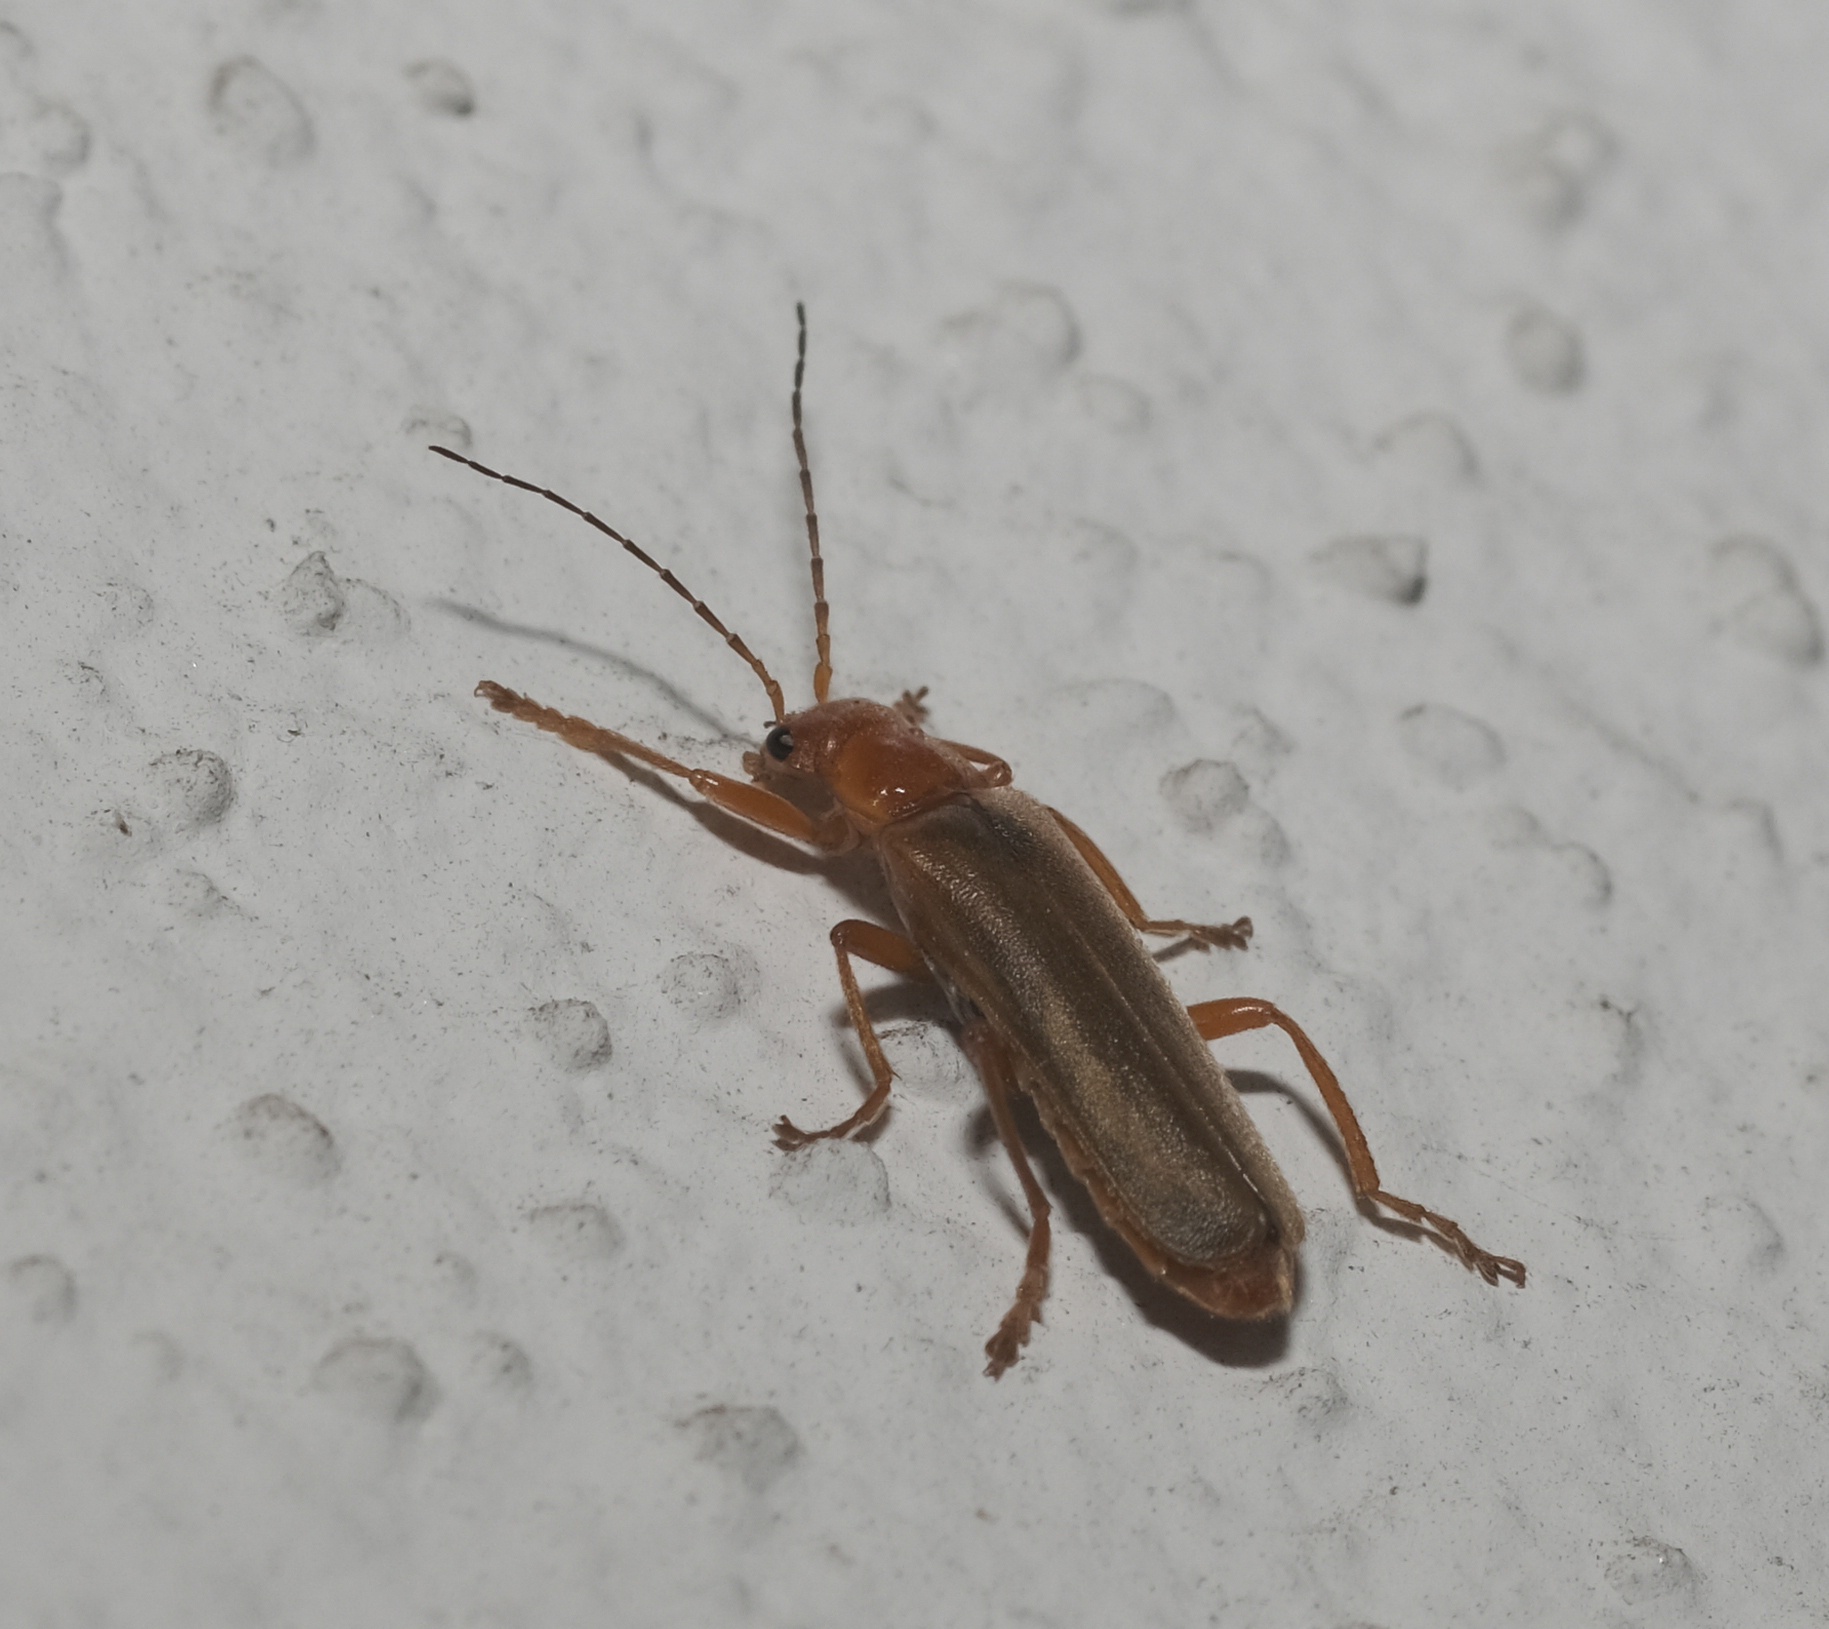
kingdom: Animalia
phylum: Arthropoda
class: Insecta
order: Coleoptera
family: Cantharidae
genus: Cantharis
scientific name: Cantharis rufa
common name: Red-spotted soldier beetle
